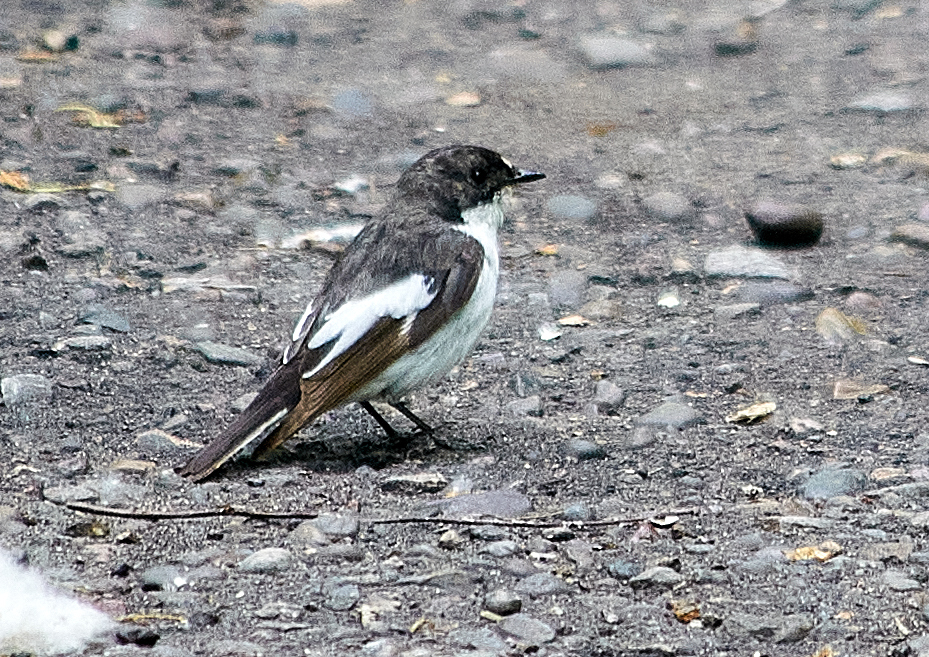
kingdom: Animalia
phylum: Chordata
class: Aves
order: Passeriformes
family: Muscicapidae
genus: Ficedula
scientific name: Ficedula hypoleuca
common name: European pied flycatcher
